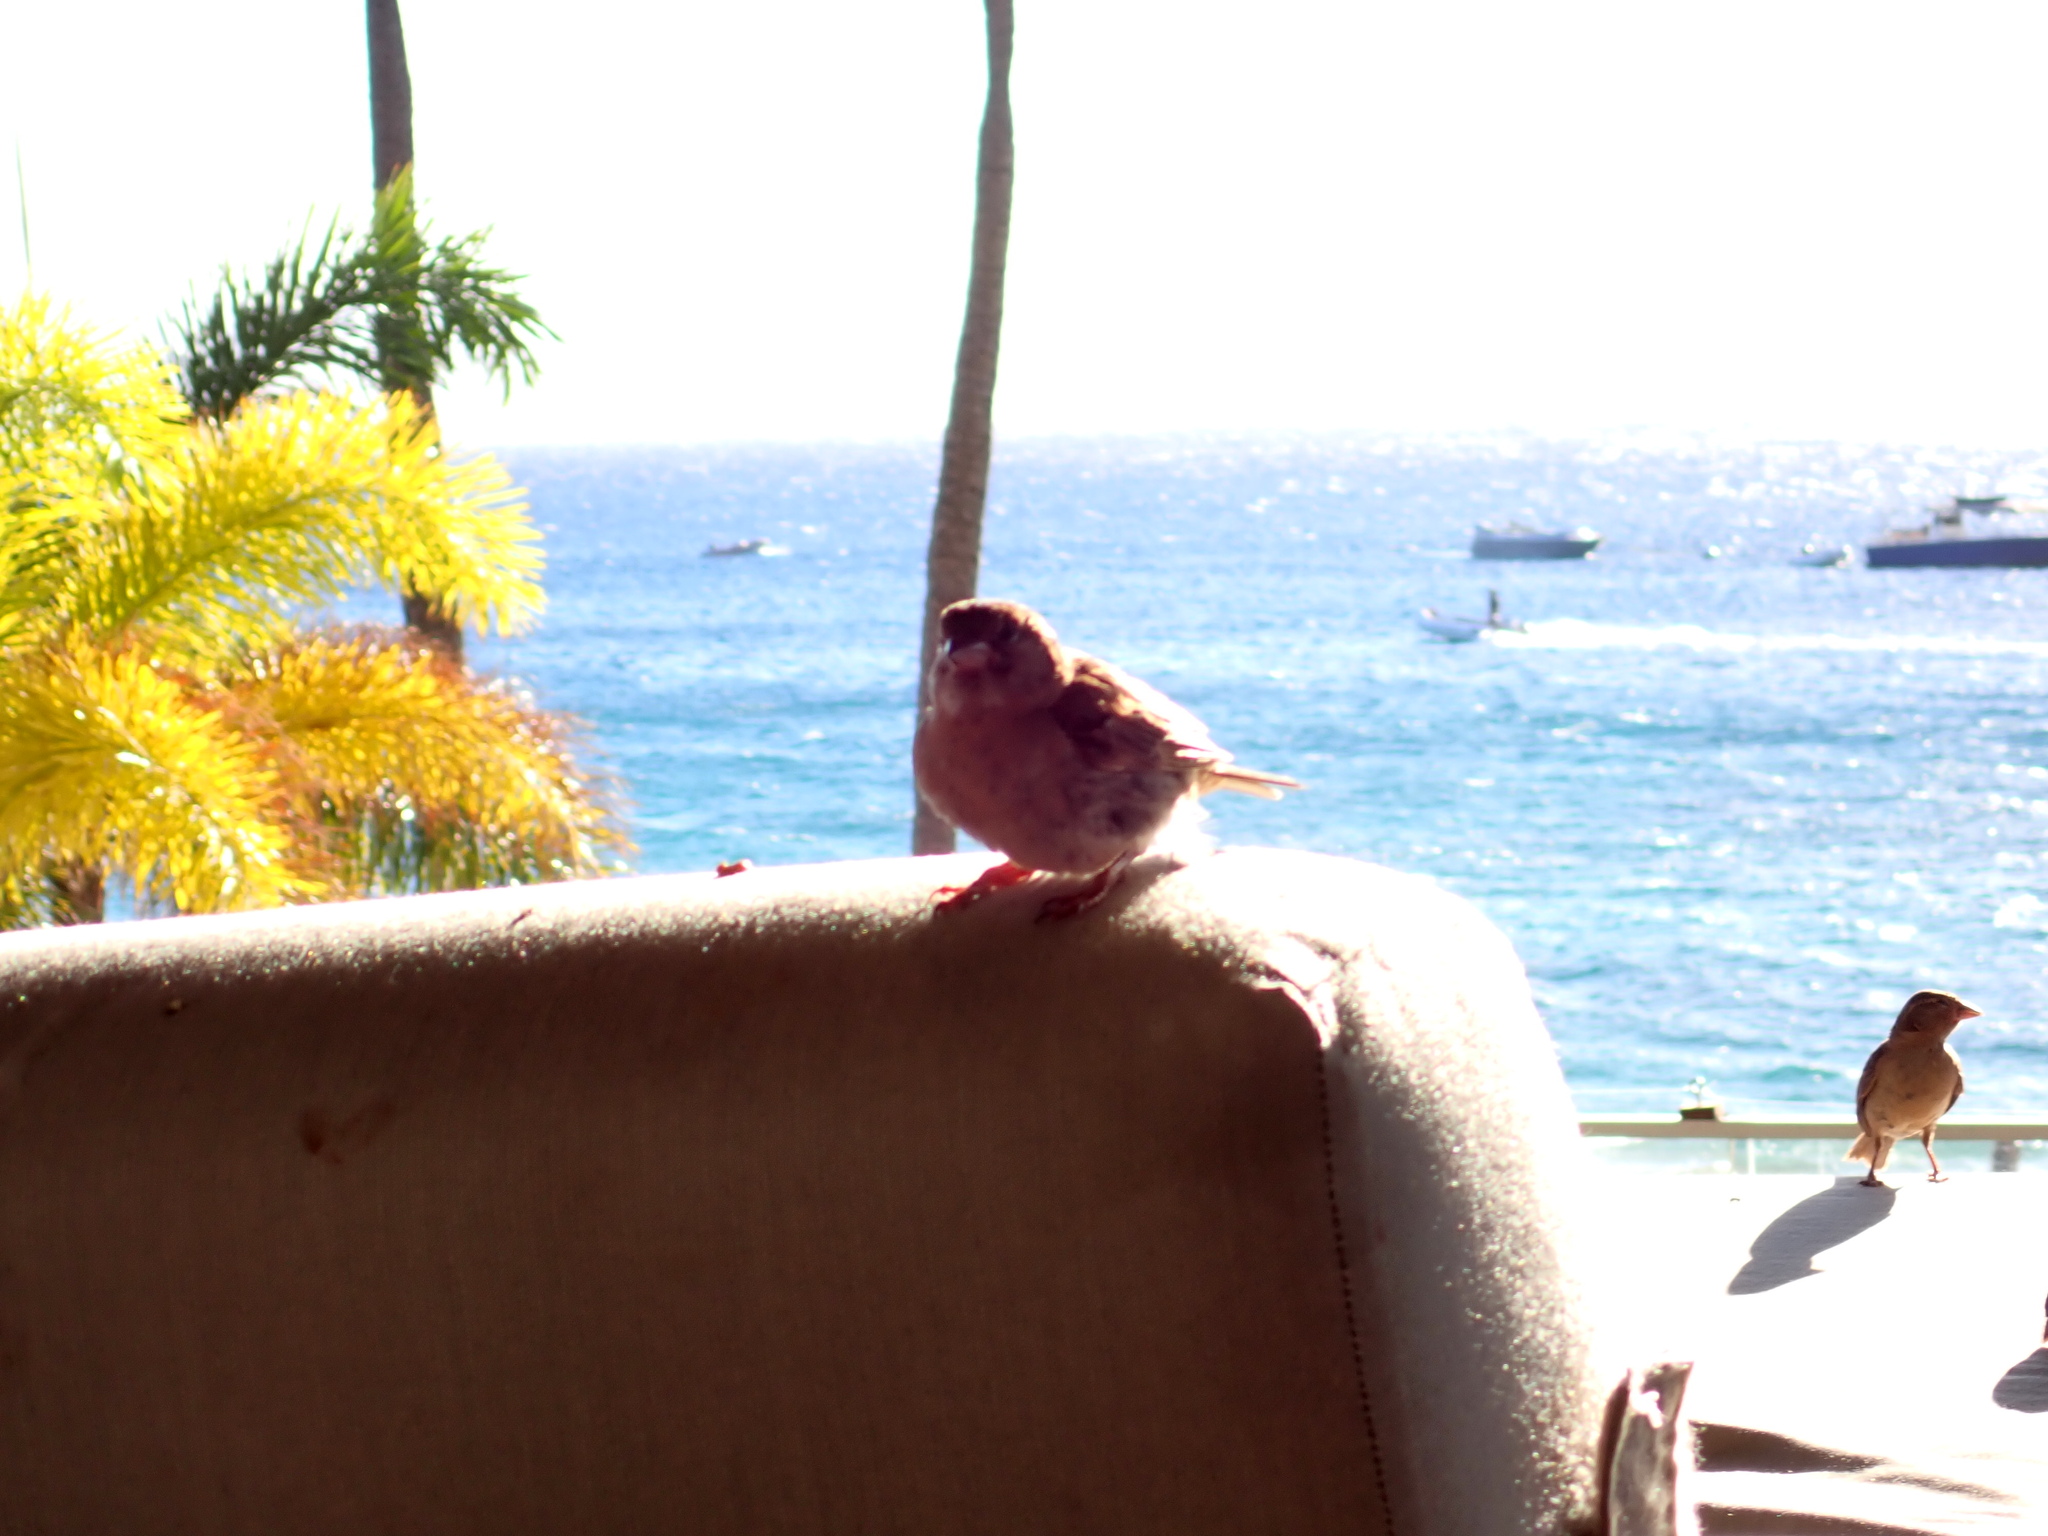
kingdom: Animalia
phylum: Chordata
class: Aves
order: Passeriformes
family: Passeridae
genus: Passer
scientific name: Passer domesticus
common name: House sparrow
